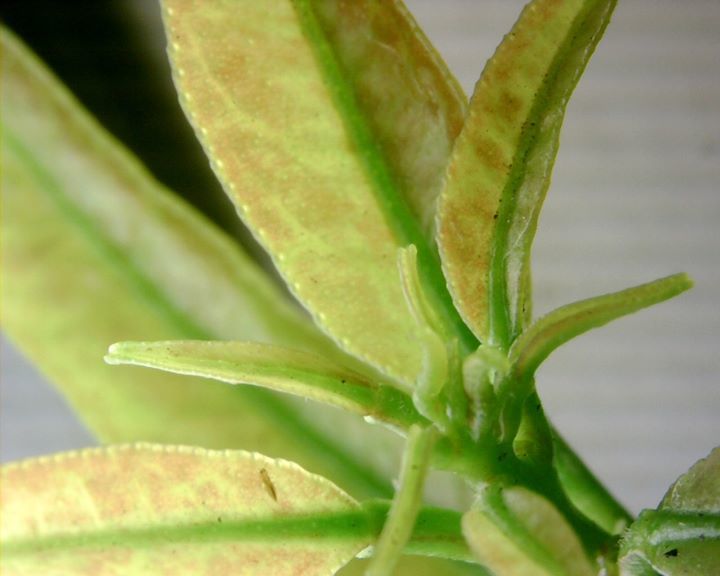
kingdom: Animalia
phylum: Arthropoda
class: Insecta
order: Thysanoptera
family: Thripidae
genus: Scirtothrips
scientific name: Scirtothrips dorsalis
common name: Thrips
